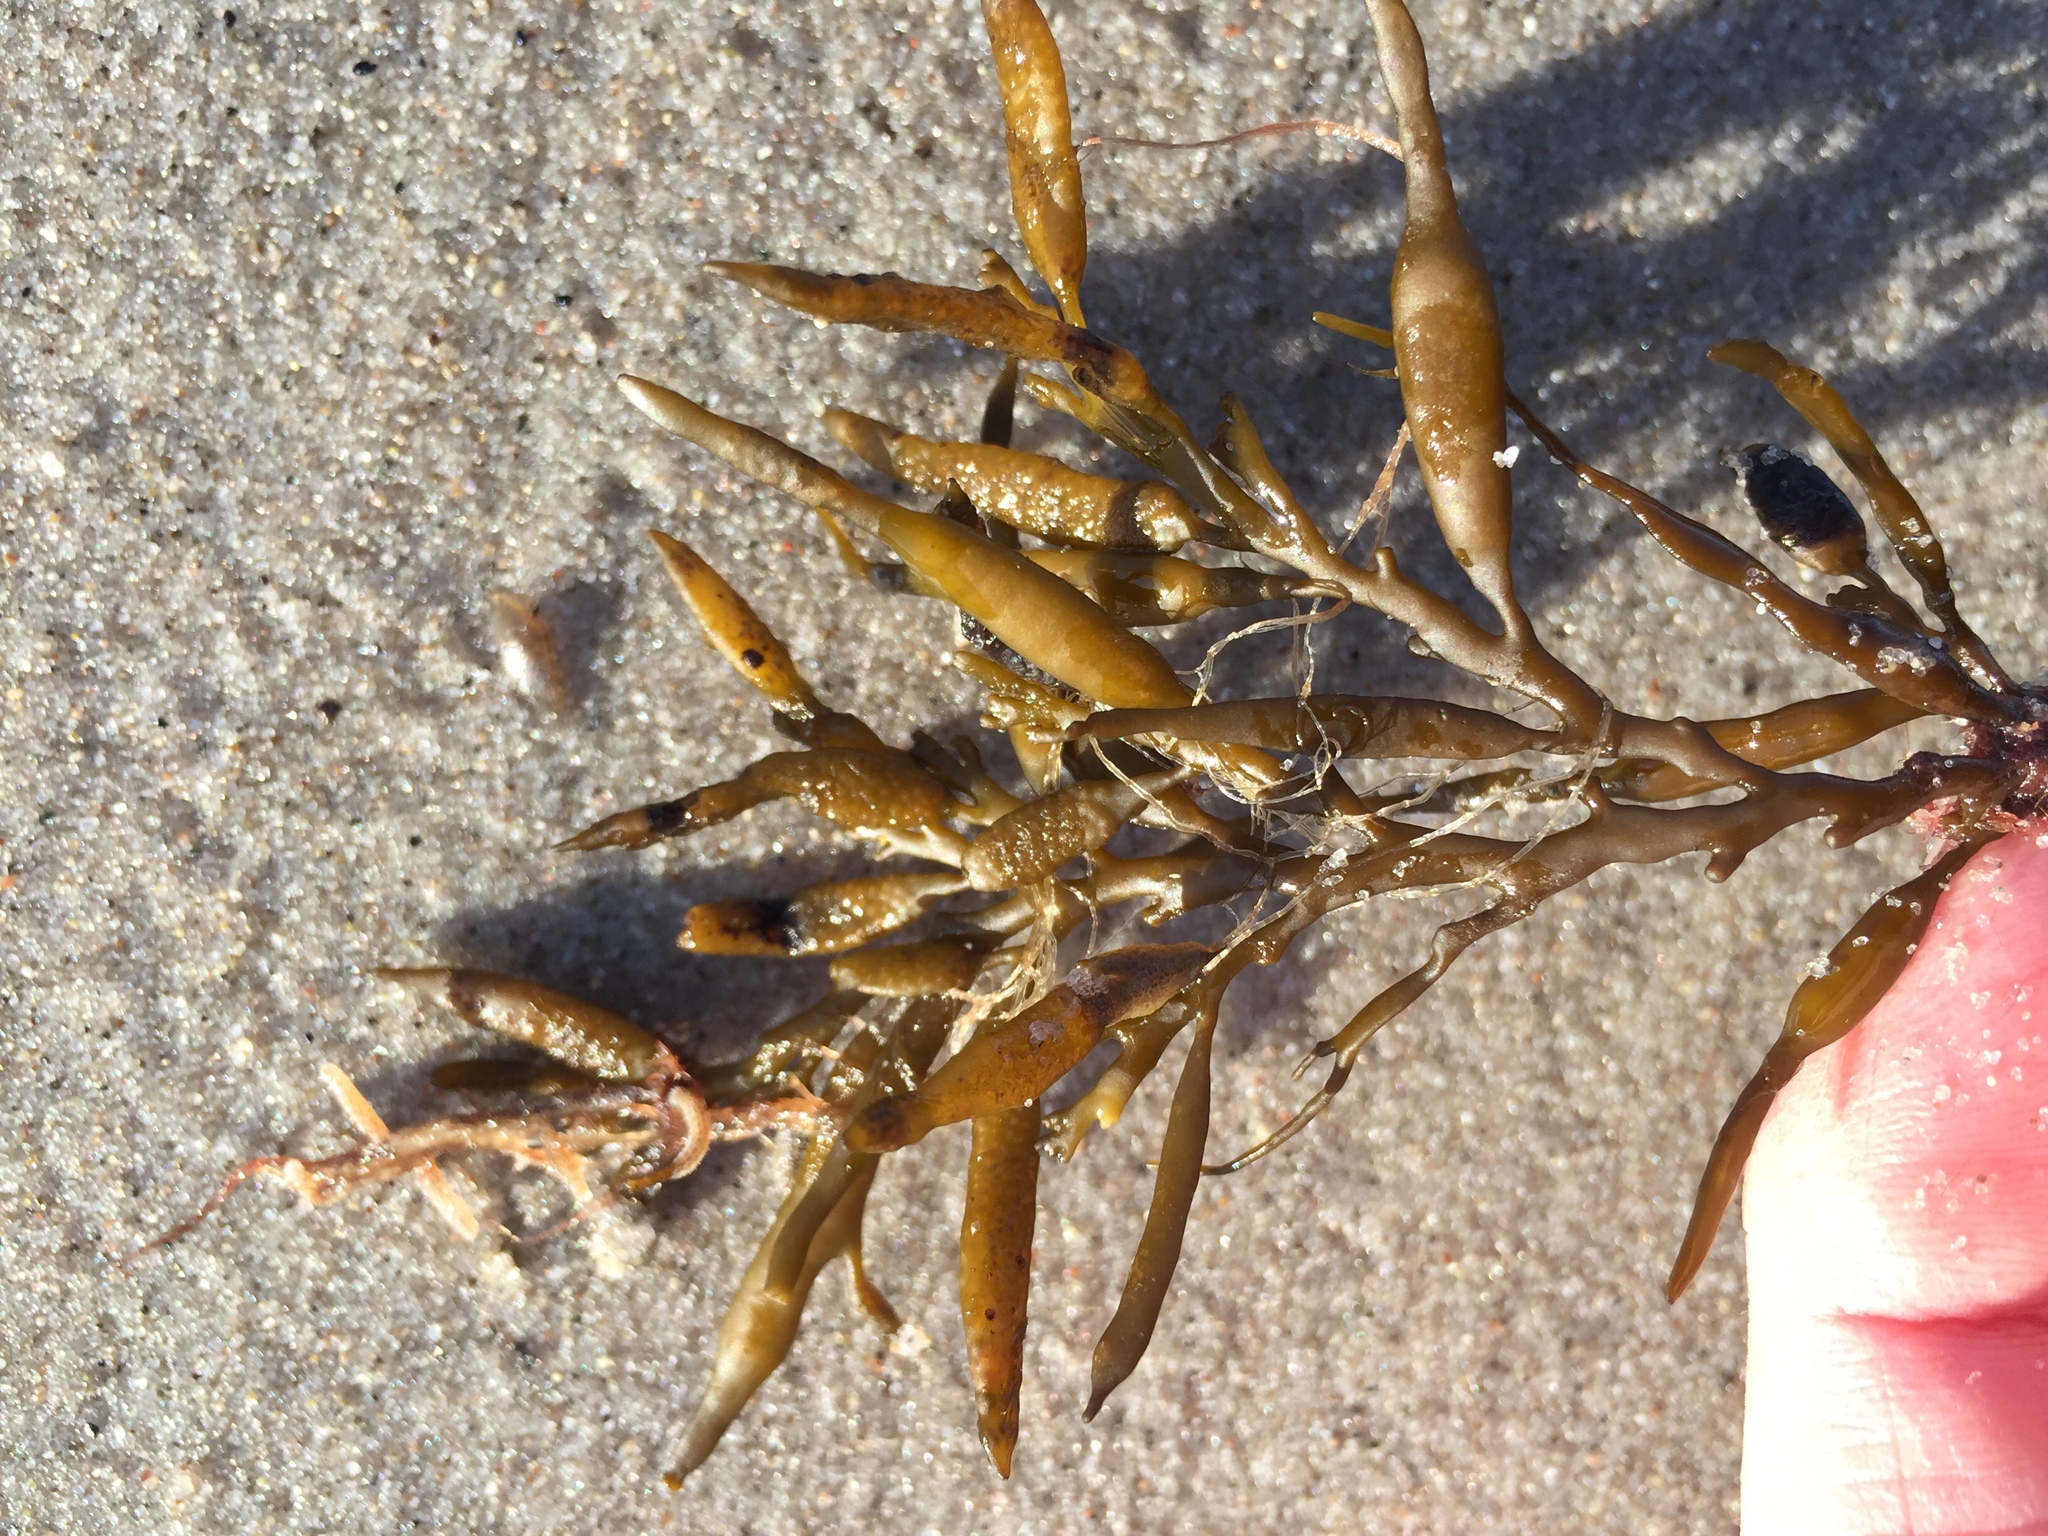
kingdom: Chromista
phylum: Ochrophyta
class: Phaeophyceae
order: Fucales
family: Sargassaceae
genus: Halidrys
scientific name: Halidrys siliquosa
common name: Sea oak
